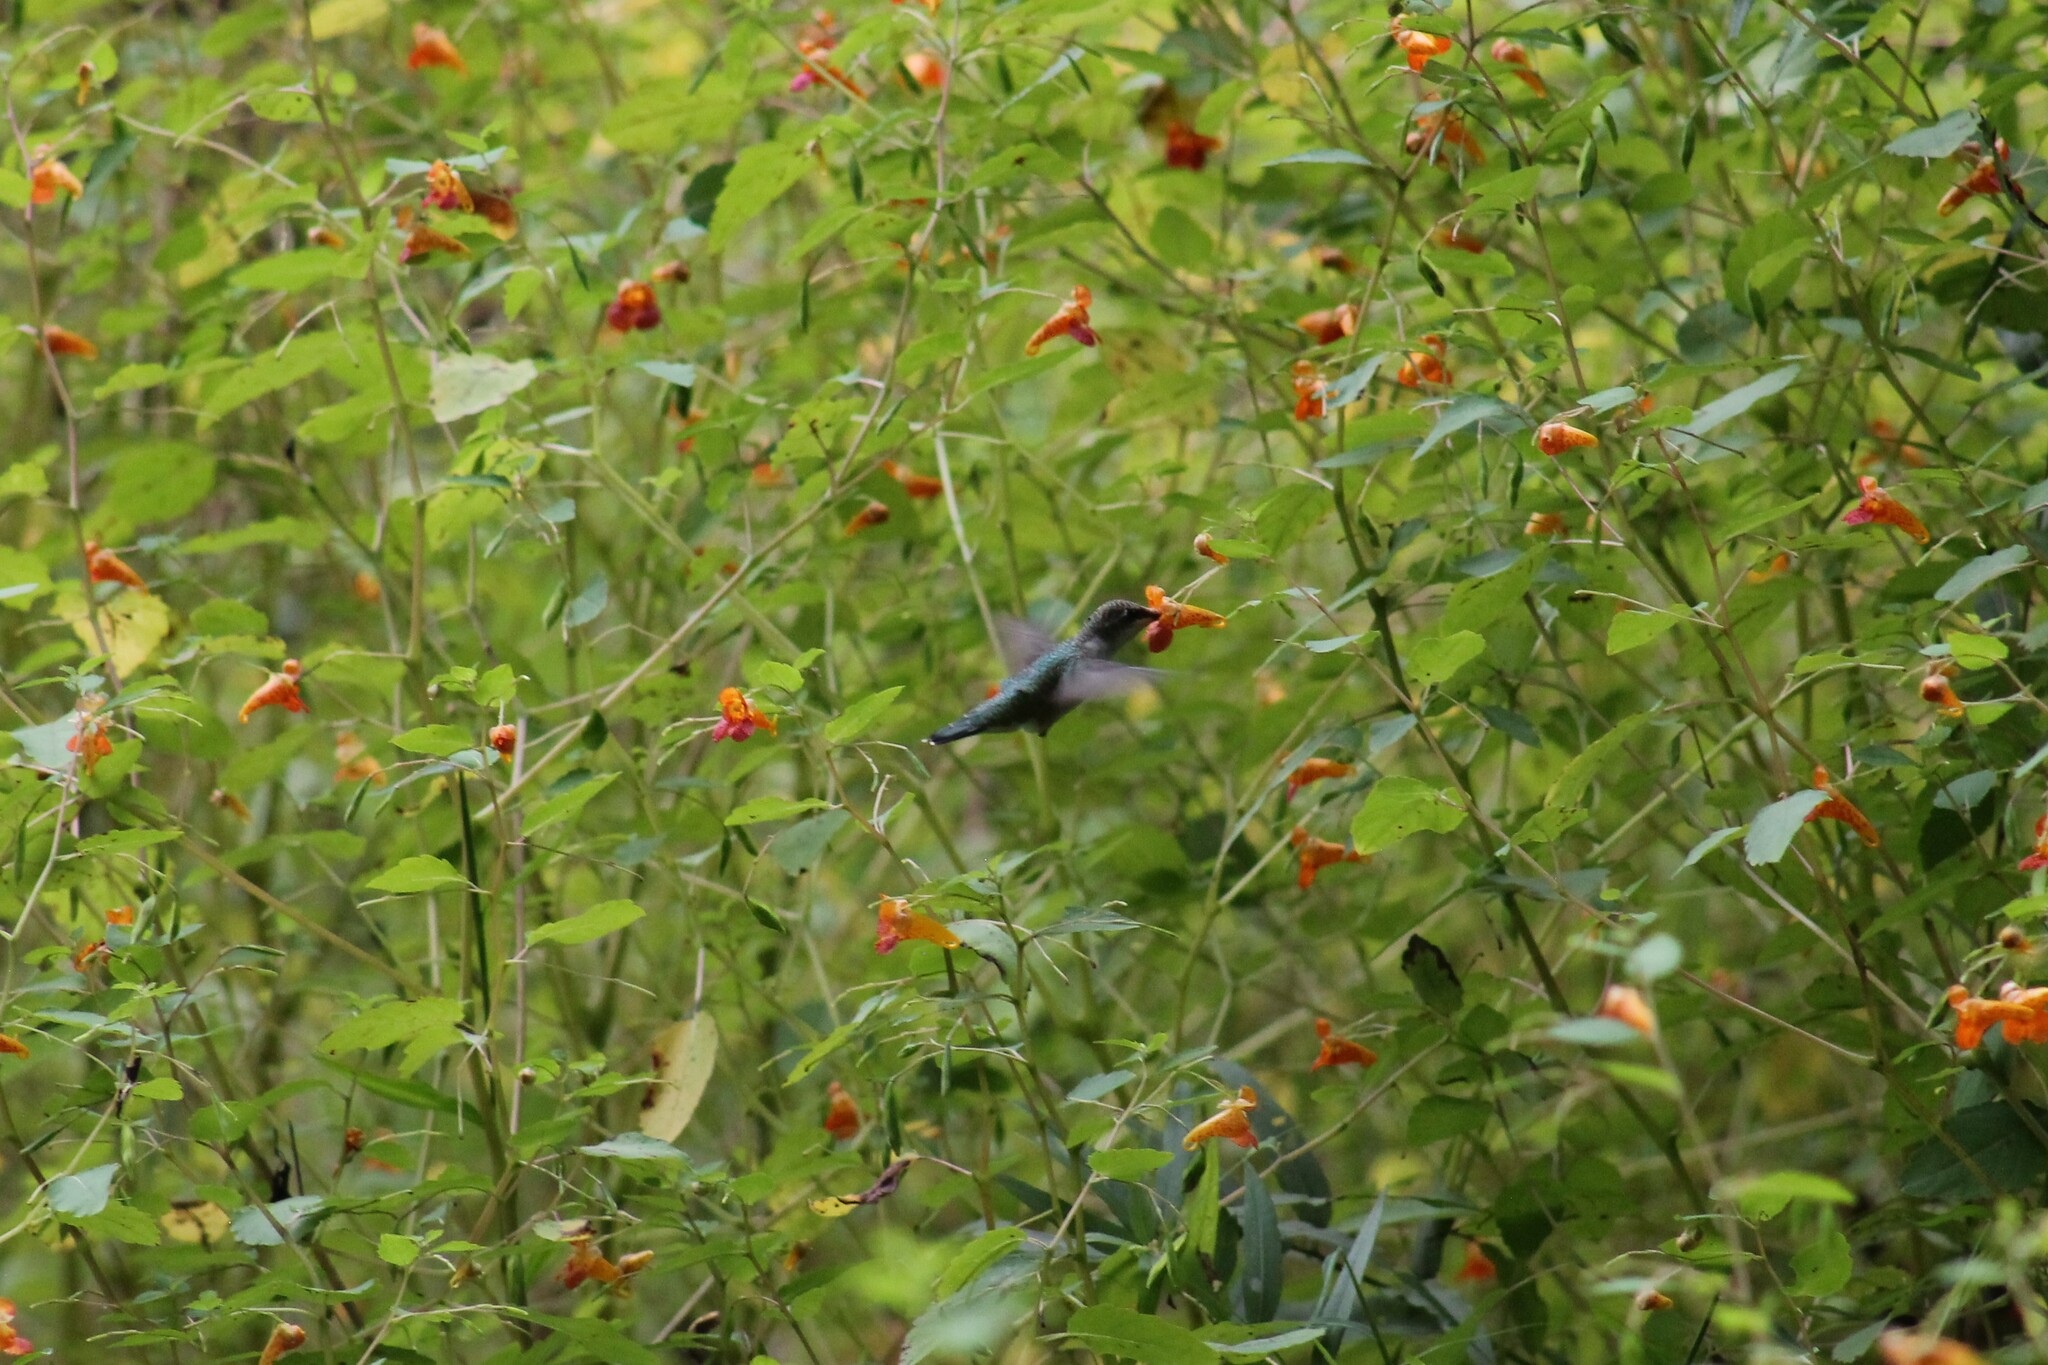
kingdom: Animalia
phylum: Chordata
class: Aves
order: Apodiformes
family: Trochilidae
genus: Archilochus
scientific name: Archilochus colubris
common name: Ruby-throated hummingbird
